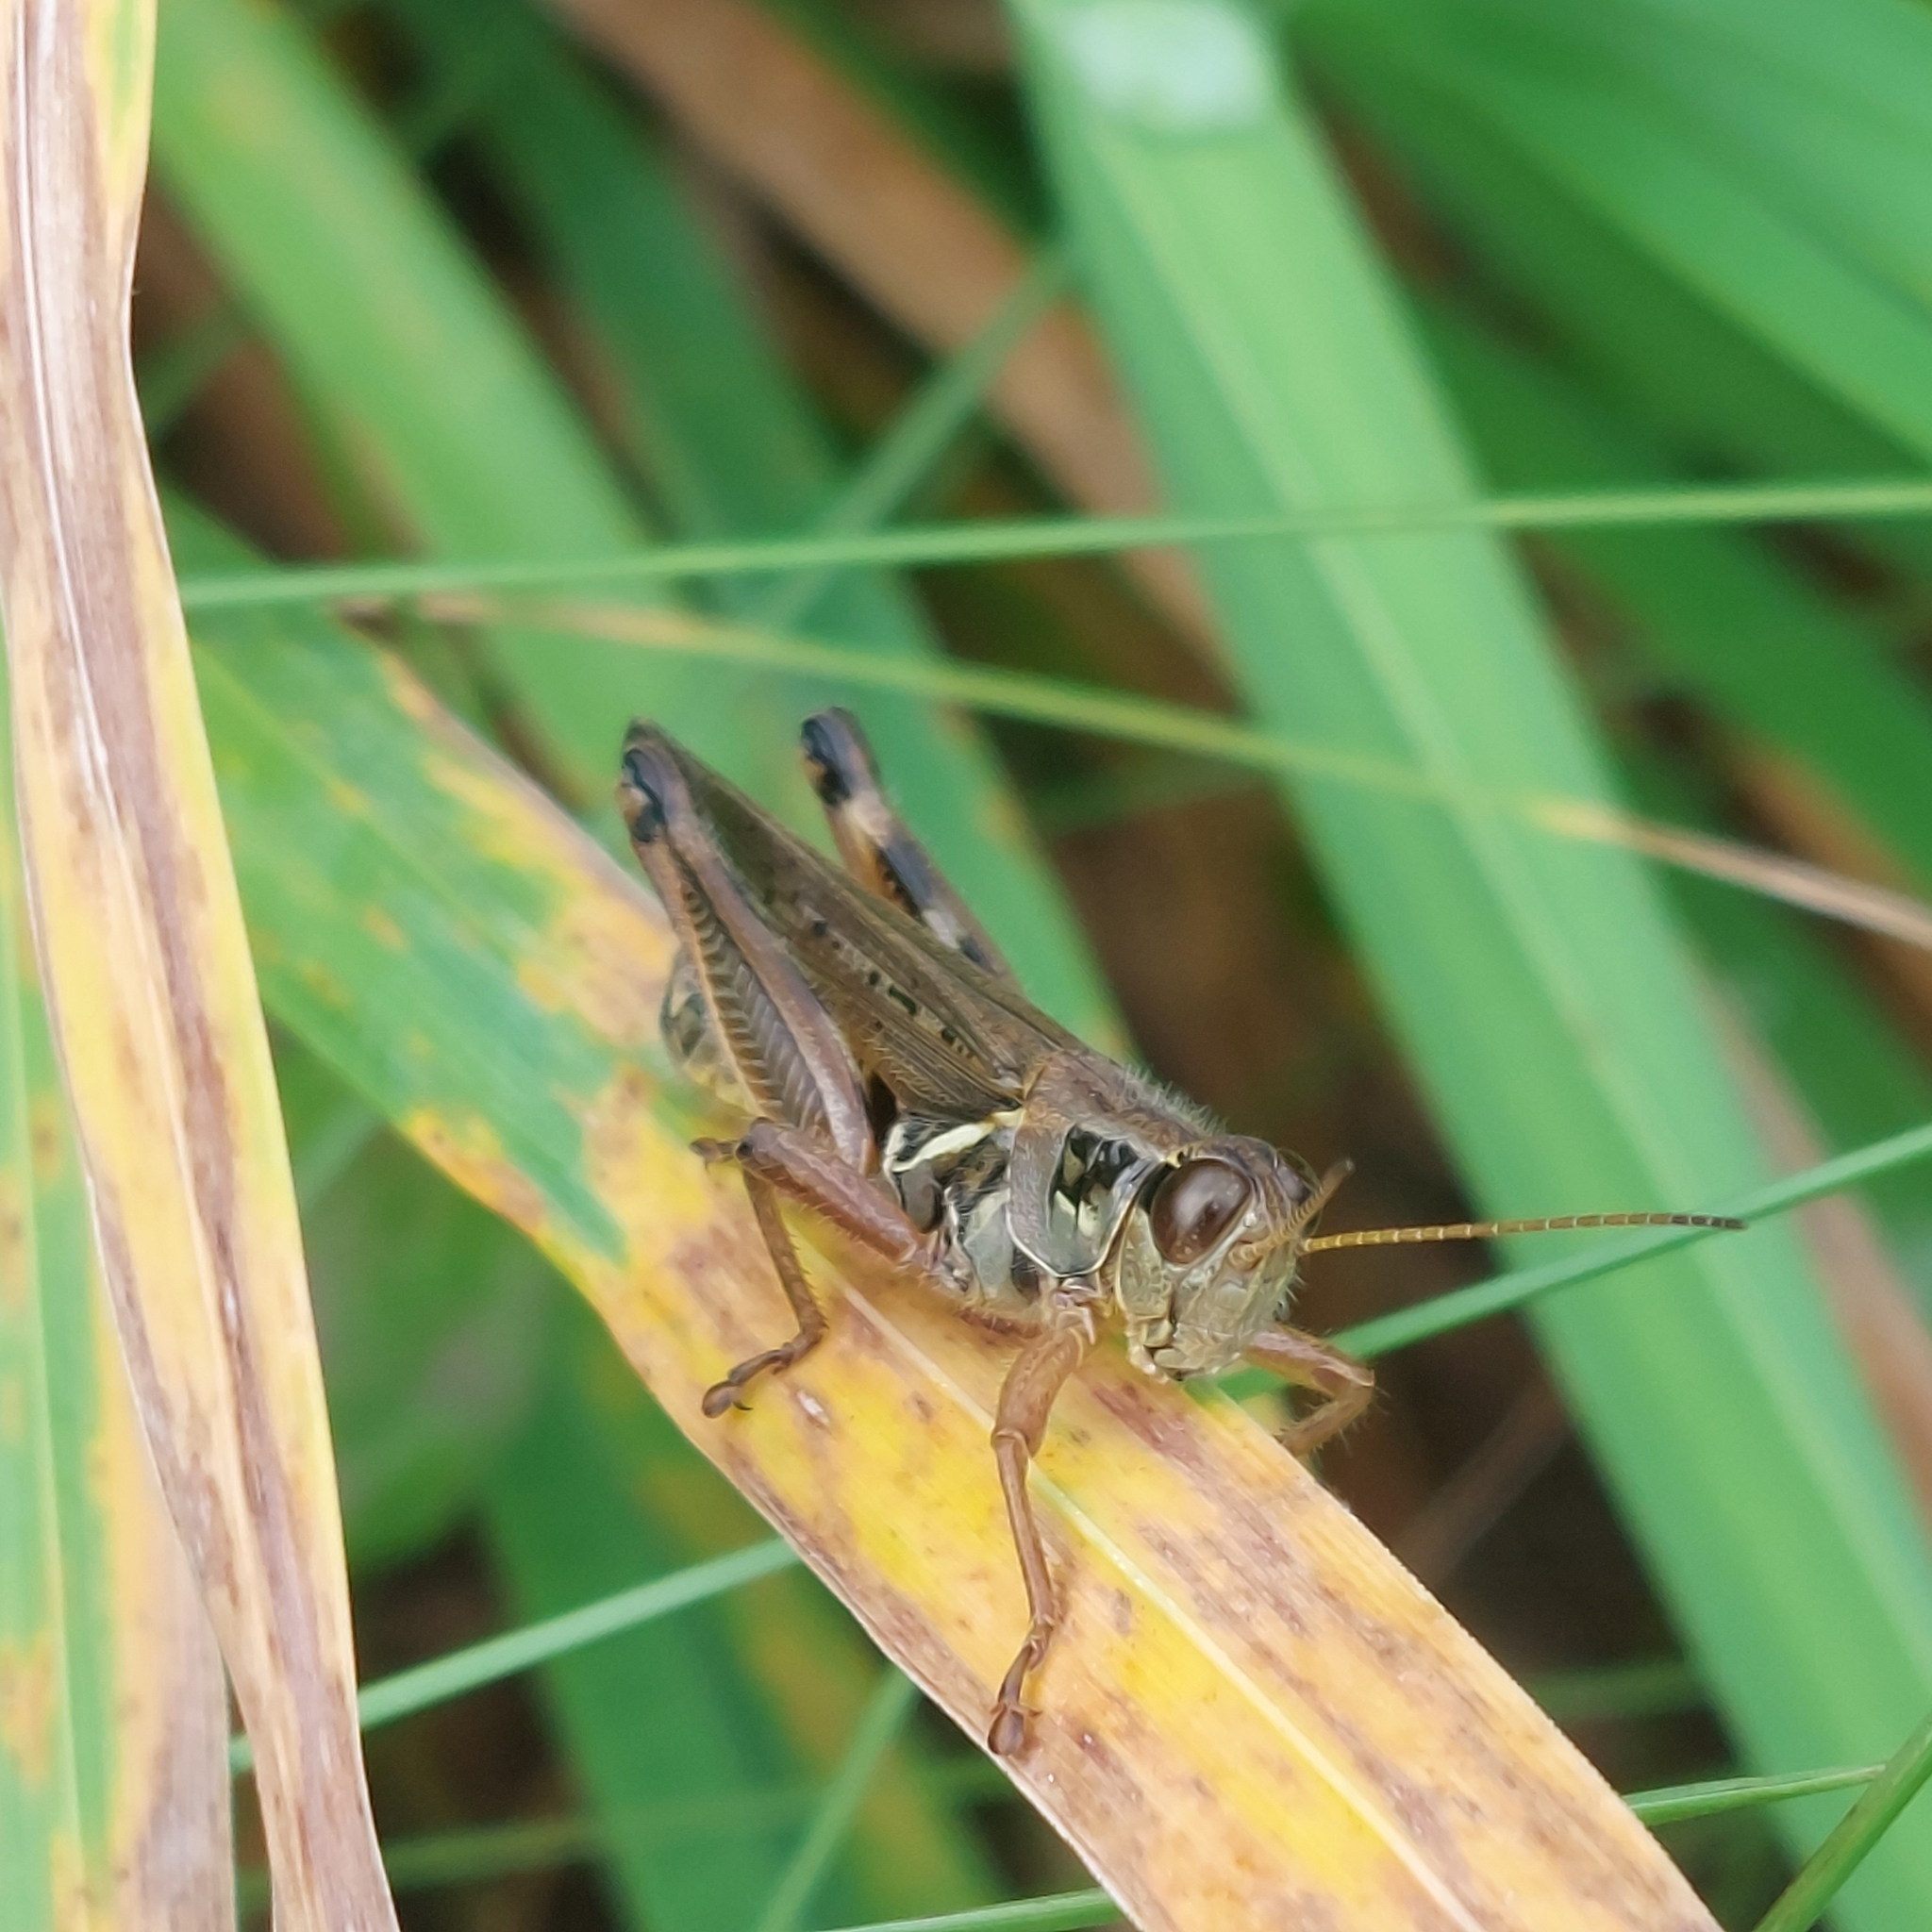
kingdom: Animalia
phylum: Arthropoda
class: Insecta
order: Orthoptera
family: Acrididae
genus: Melanoplus
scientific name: Melanoplus femurrubrum
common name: Red-legged grasshopper
